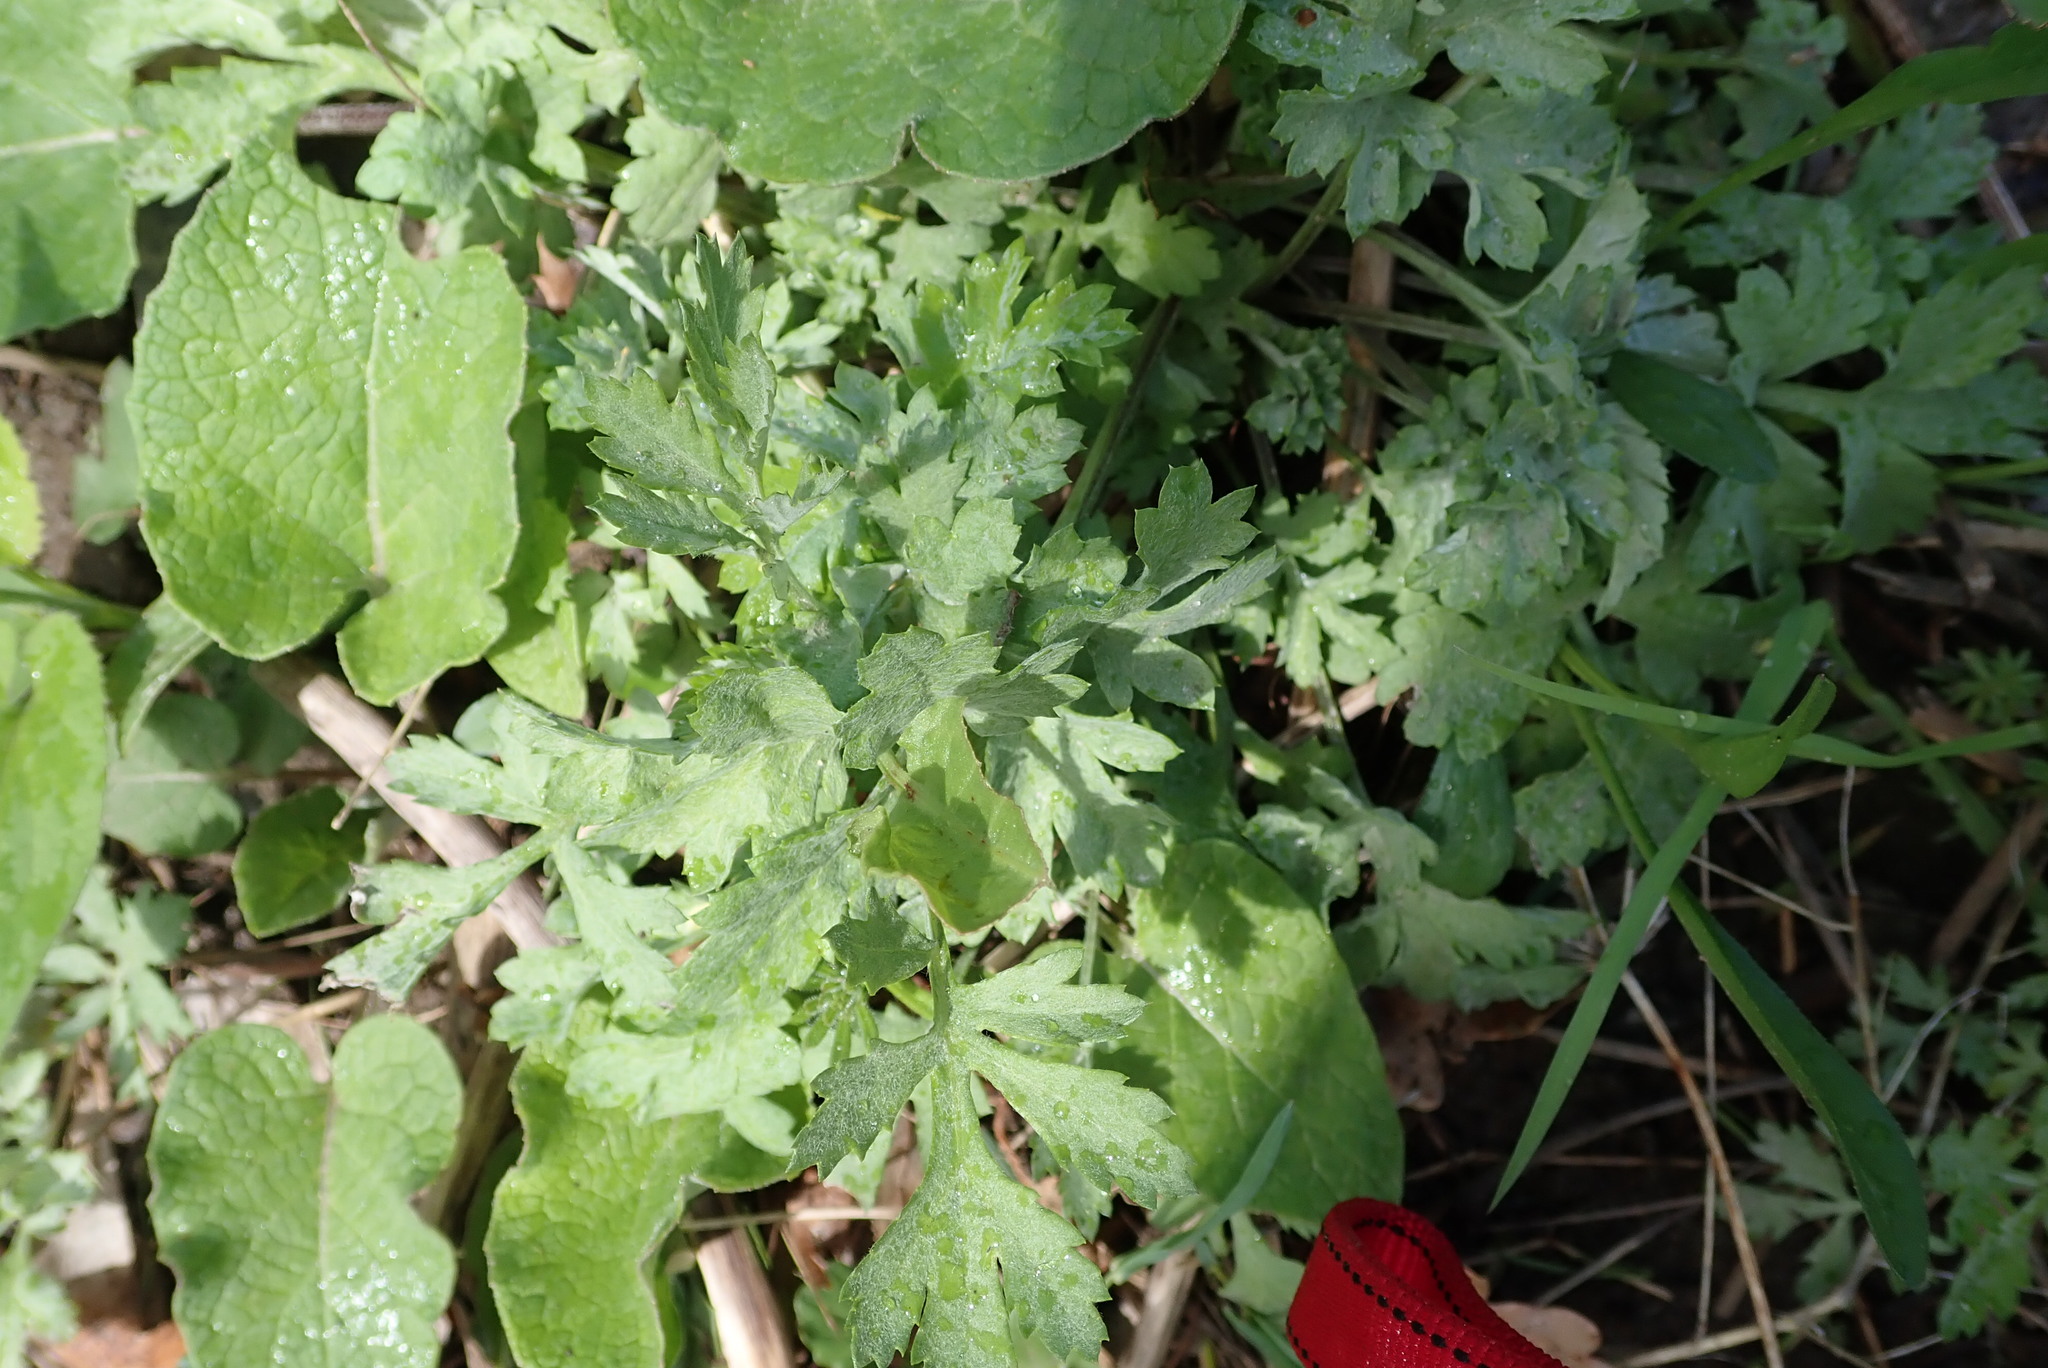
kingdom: Plantae
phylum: Tracheophyta
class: Magnoliopsida
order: Asterales
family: Asteraceae
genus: Artemisia
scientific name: Artemisia vulgaris
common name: Mugwort
